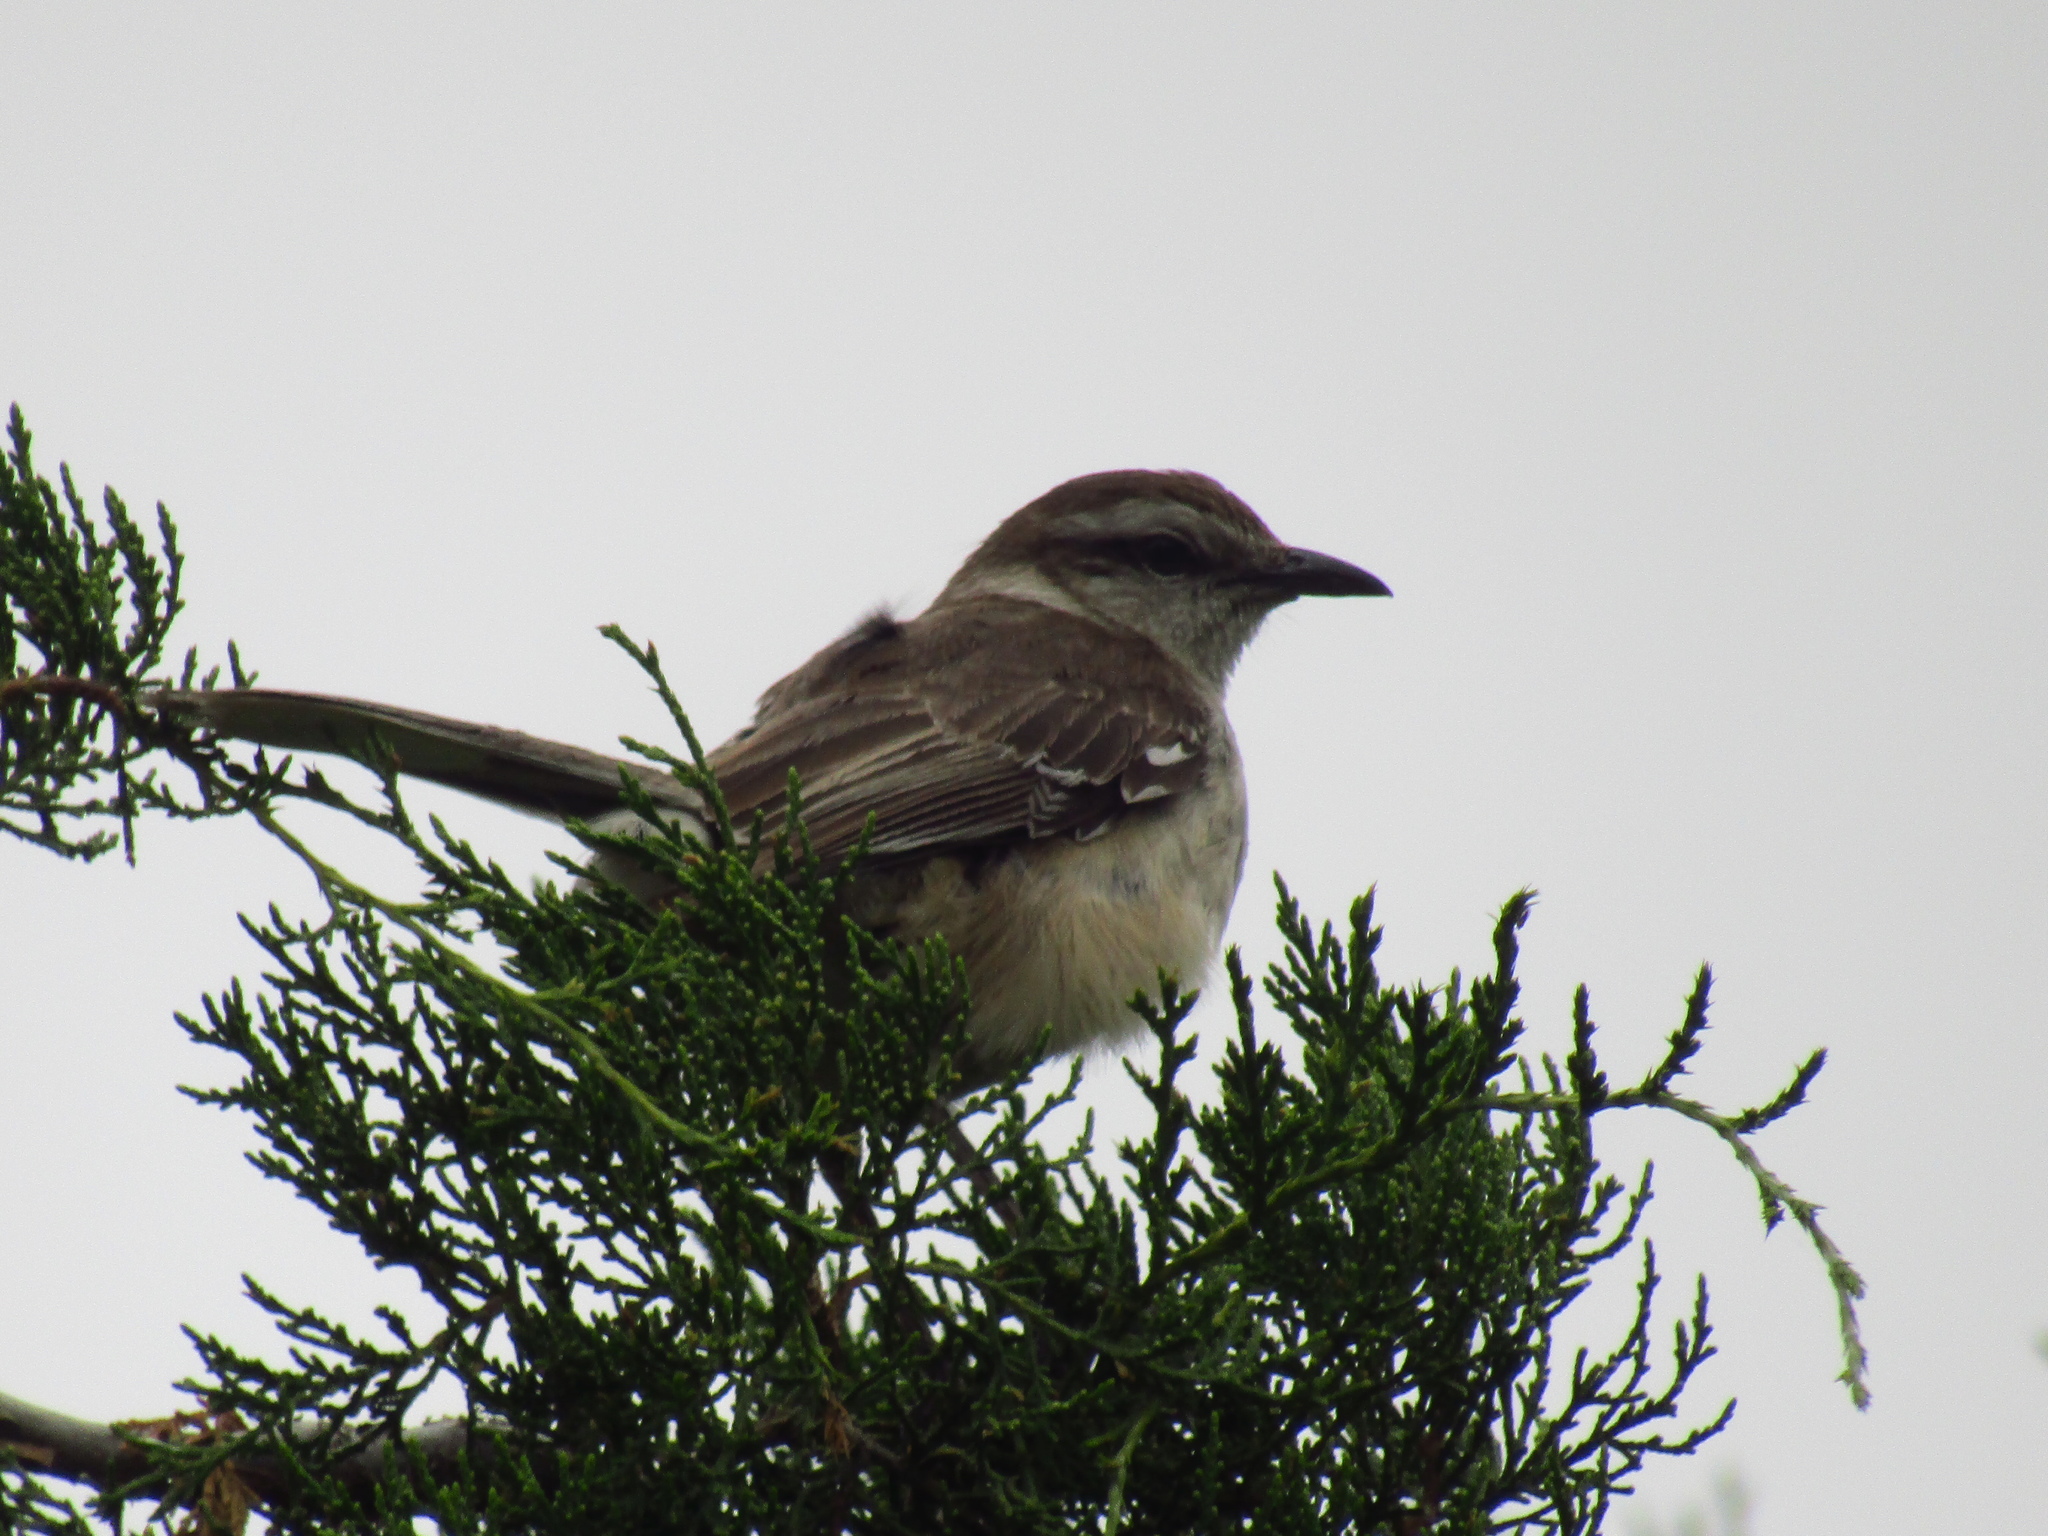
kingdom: Animalia
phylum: Chordata
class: Aves
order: Passeriformes
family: Mimidae
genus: Mimus
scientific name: Mimus saturninus
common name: Chalk-browed mockingbird
